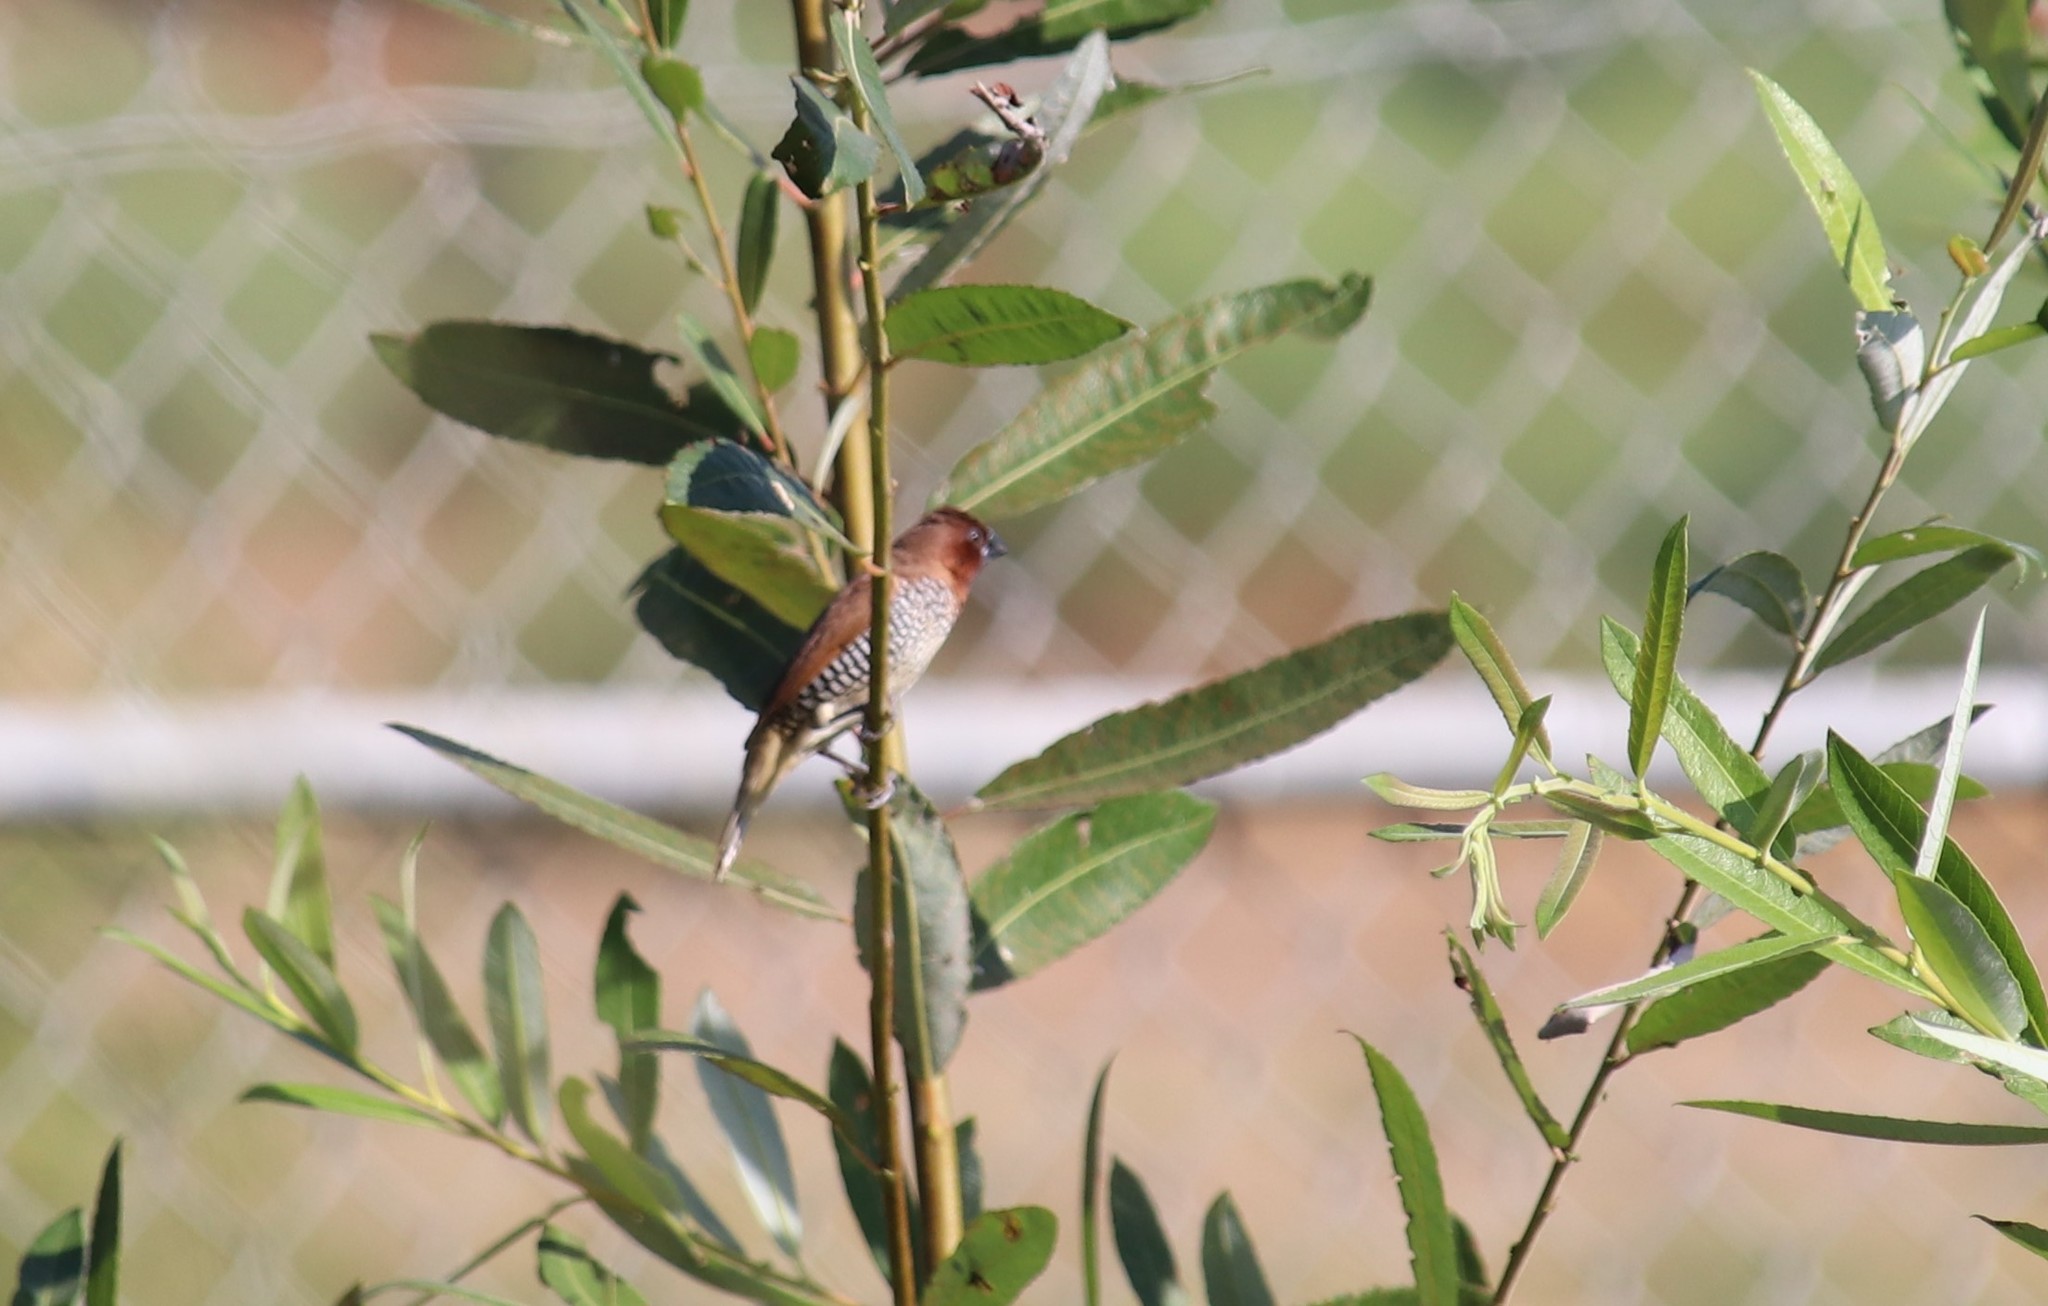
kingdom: Animalia
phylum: Chordata
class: Aves
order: Passeriformes
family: Estrildidae
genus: Lonchura
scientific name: Lonchura punctulata
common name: Scaly-breasted munia
